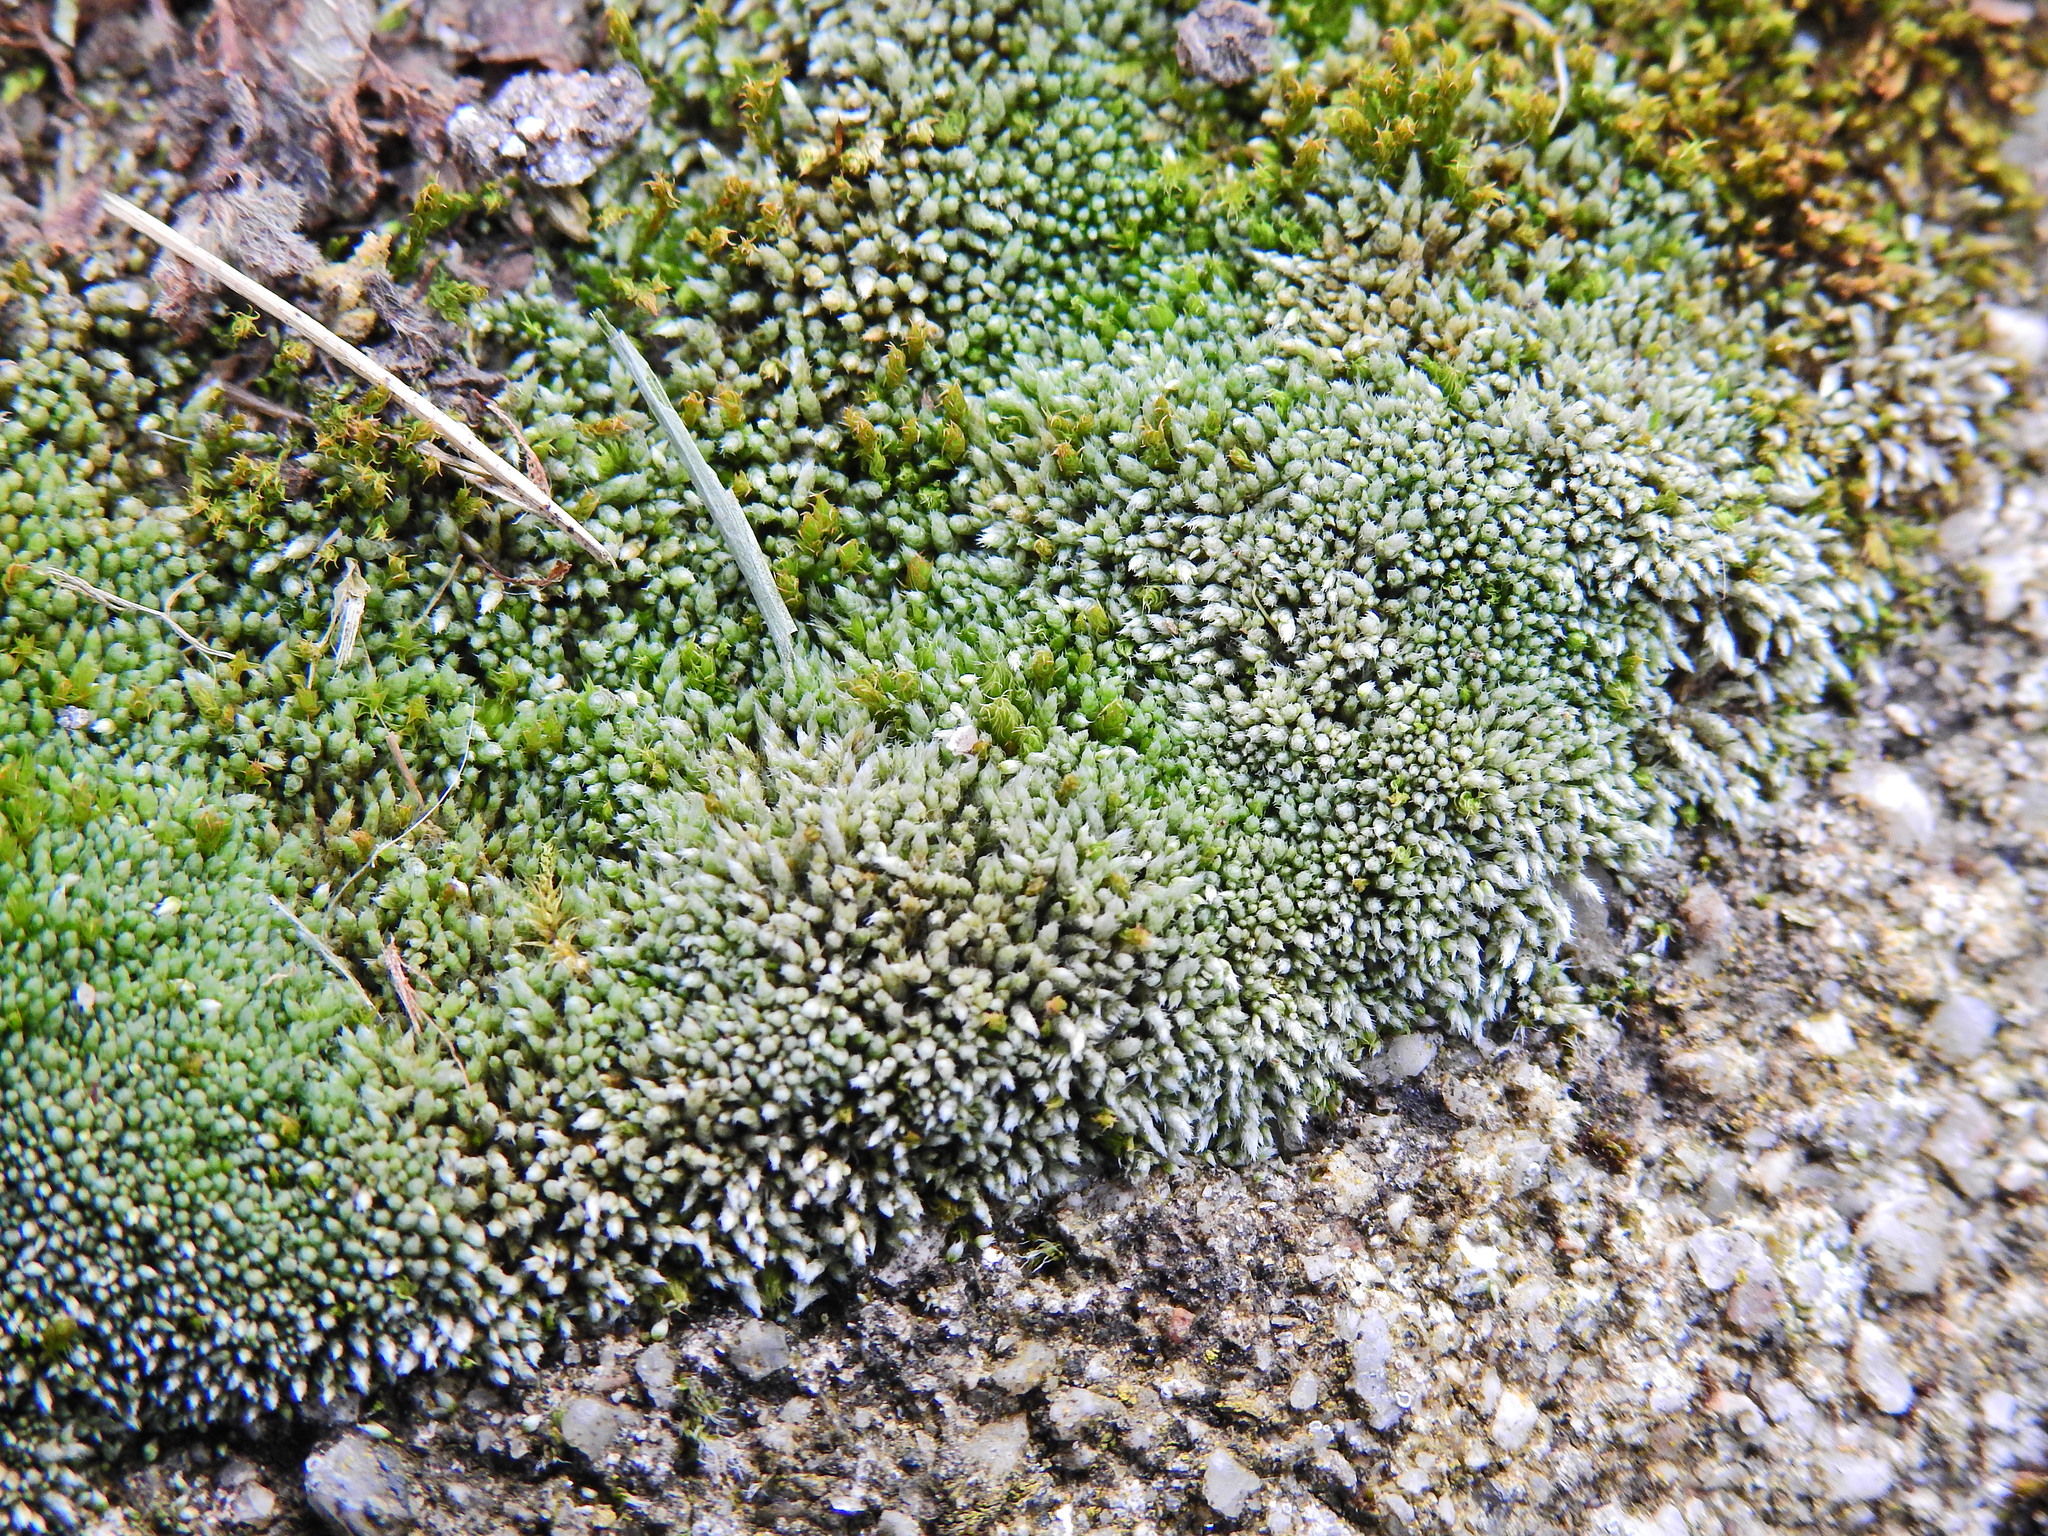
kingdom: Plantae
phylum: Bryophyta
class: Bryopsida
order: Bryales
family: Bryaceae
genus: Bryum
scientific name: Bryum argenteum
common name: Silver-moss
